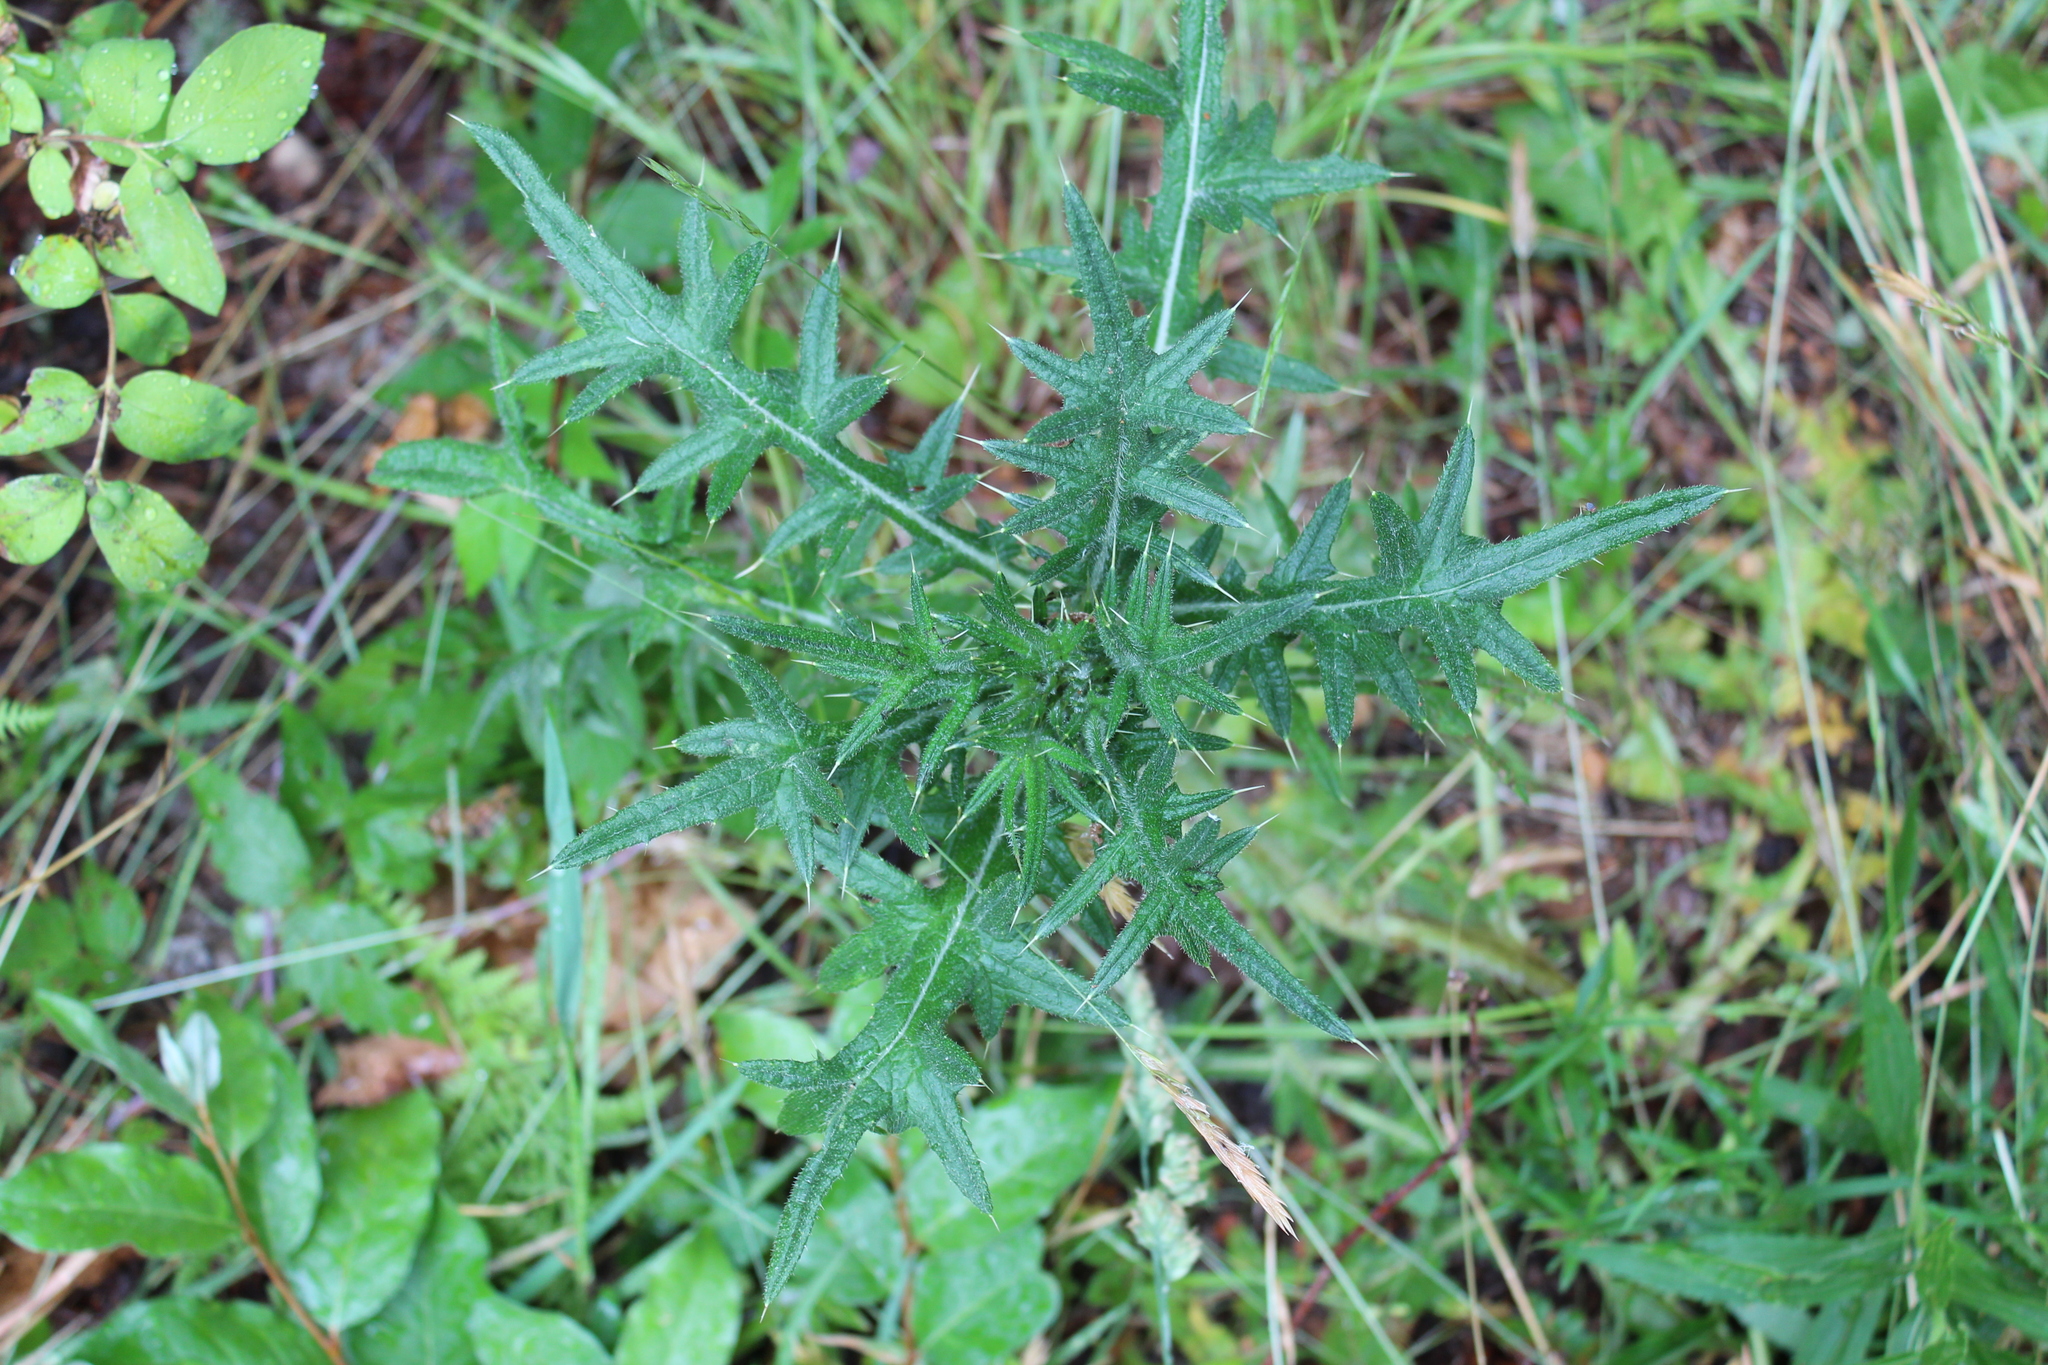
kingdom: Plantae
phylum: Tracheophyta
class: Magnoliopsida
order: Asterales
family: Asteraceae
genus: Cirsium
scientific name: Cirsium vulgare
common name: Bull thistle
